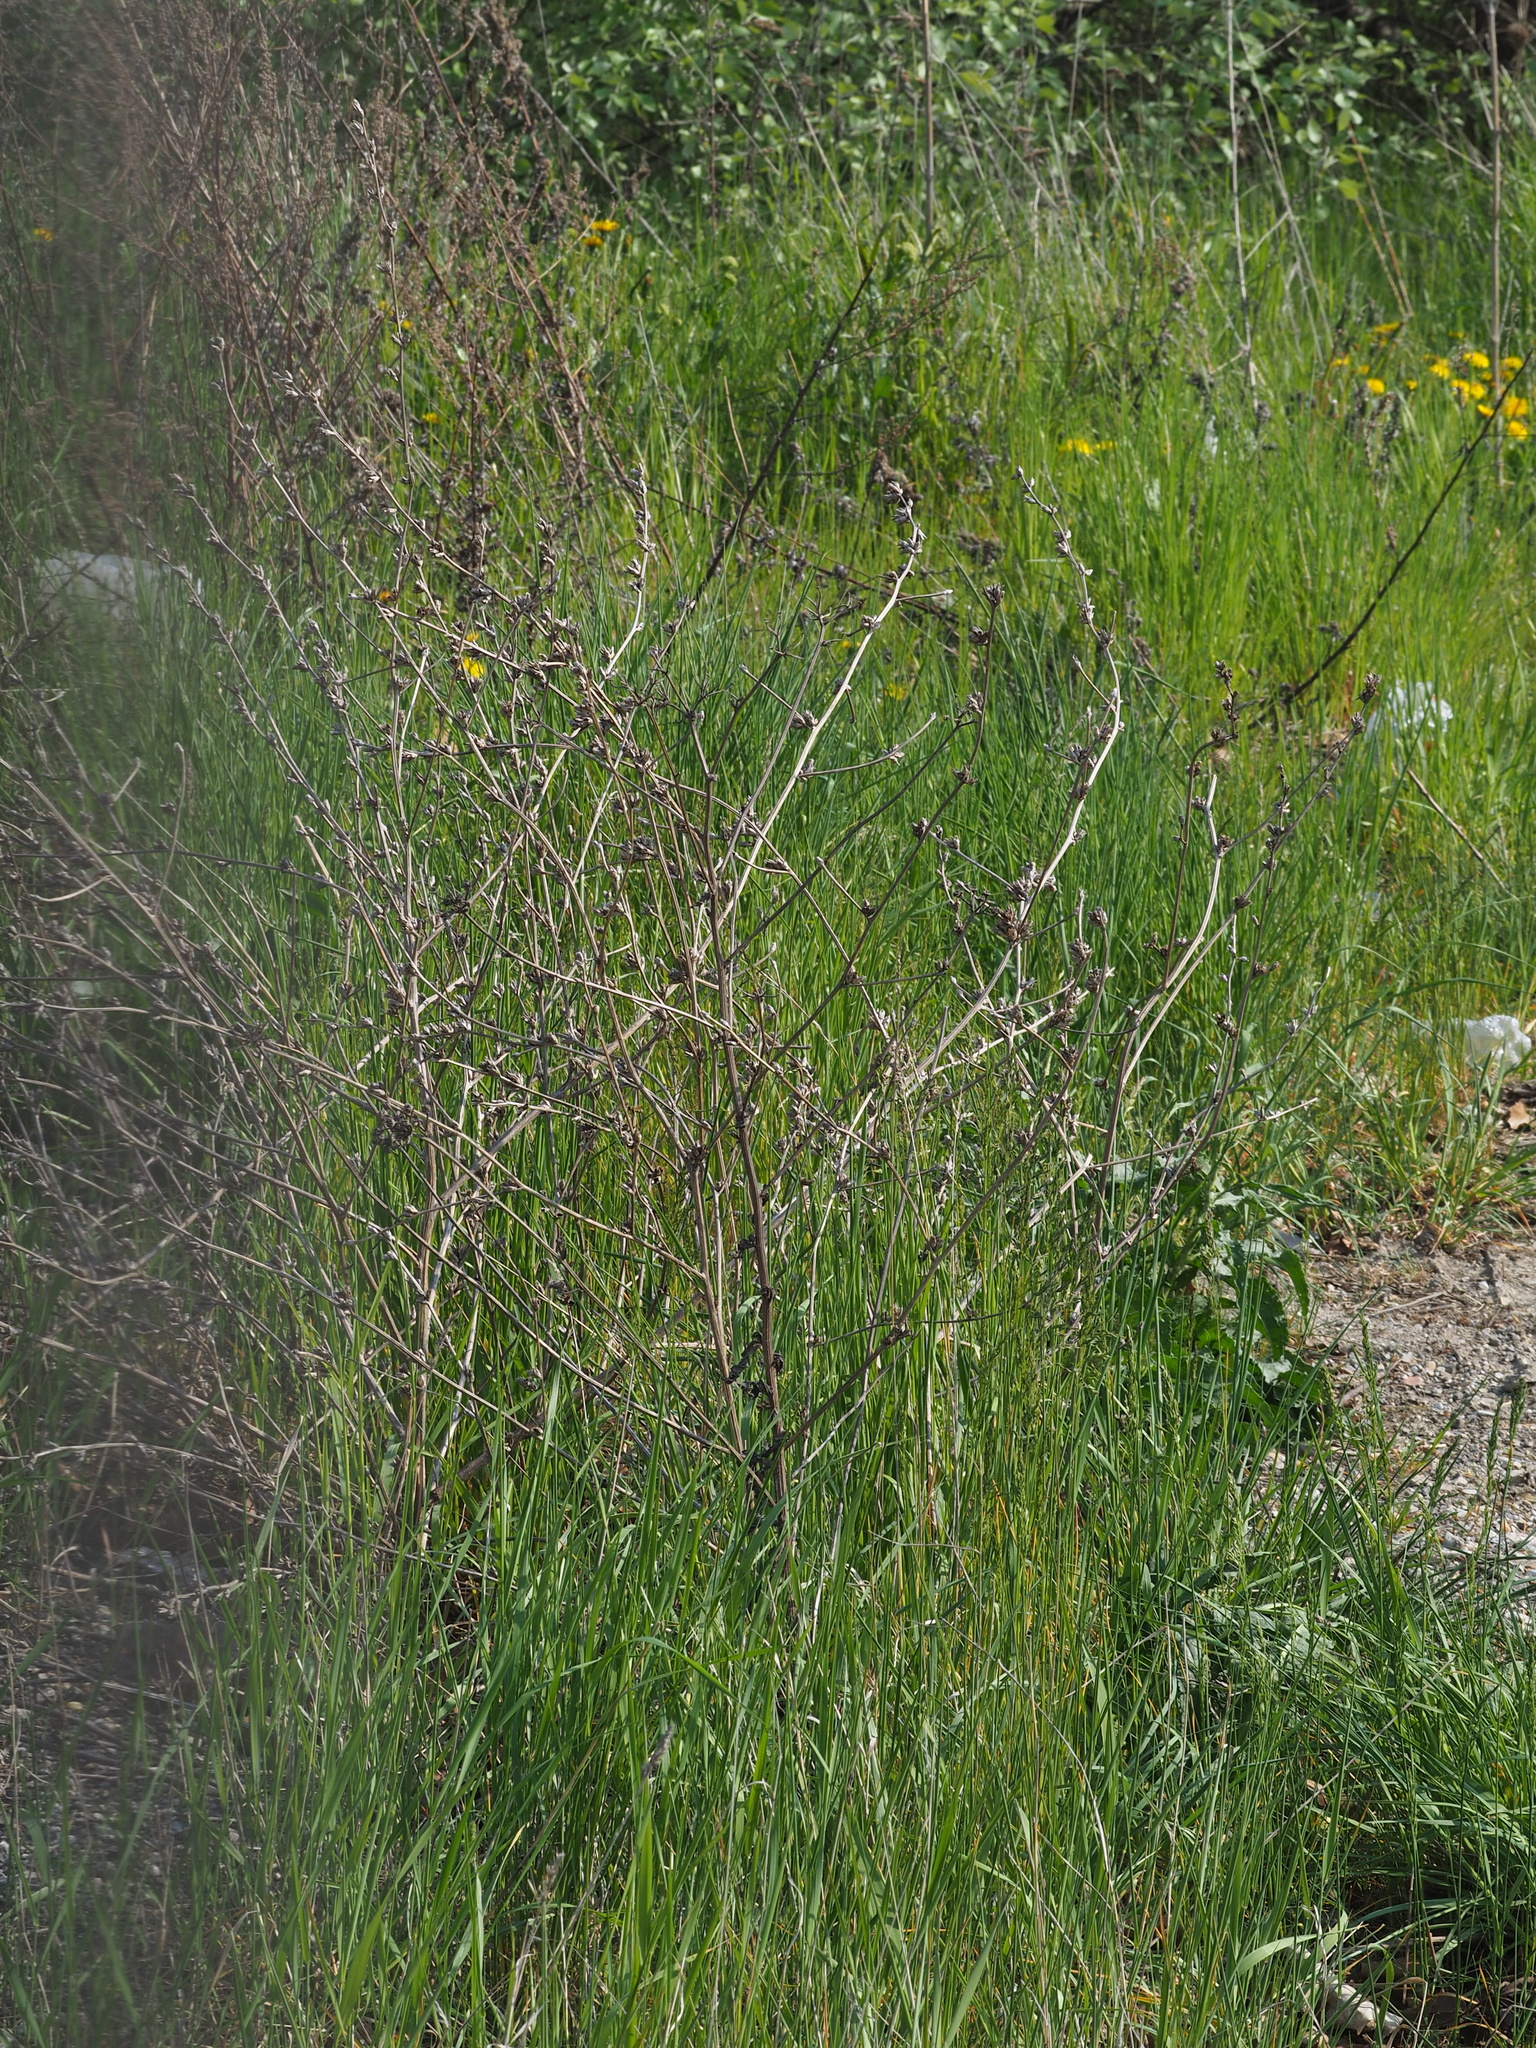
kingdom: Plantae
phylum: Tracheophyta
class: Magnoliopsida
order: Asterales
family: Asteraceae
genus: Cichorium
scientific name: Cichorium intybus
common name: Chicory
